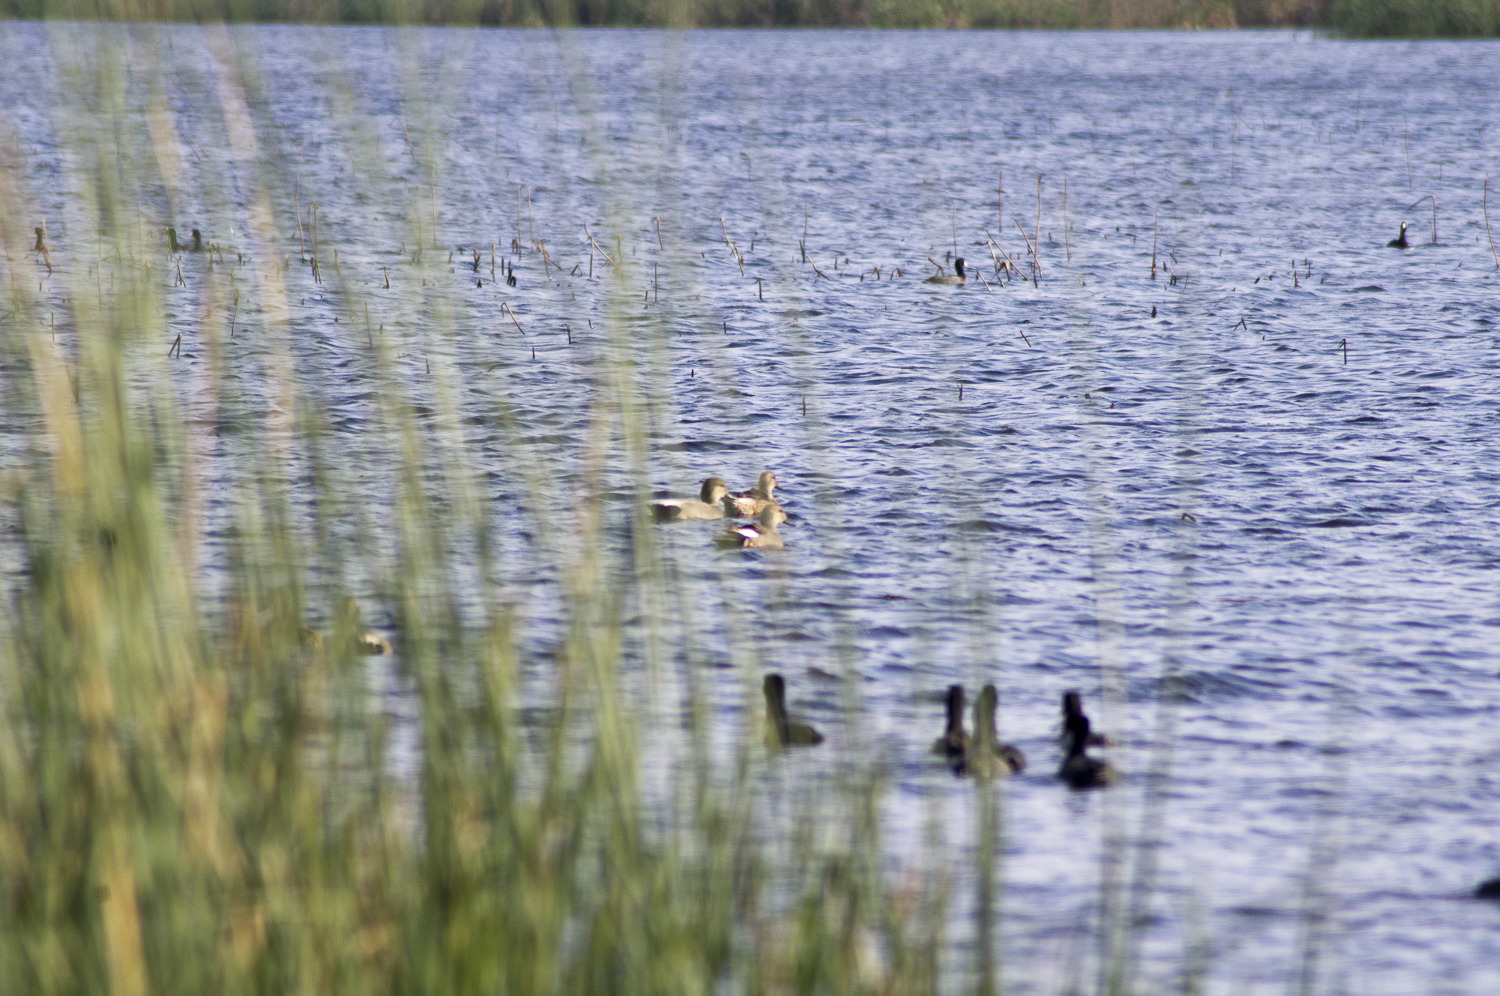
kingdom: Animalia
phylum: Chordata
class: Aves
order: Anseriformes
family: Anatidae
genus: Mareca
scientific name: Mareca strepera
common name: Gadwall
